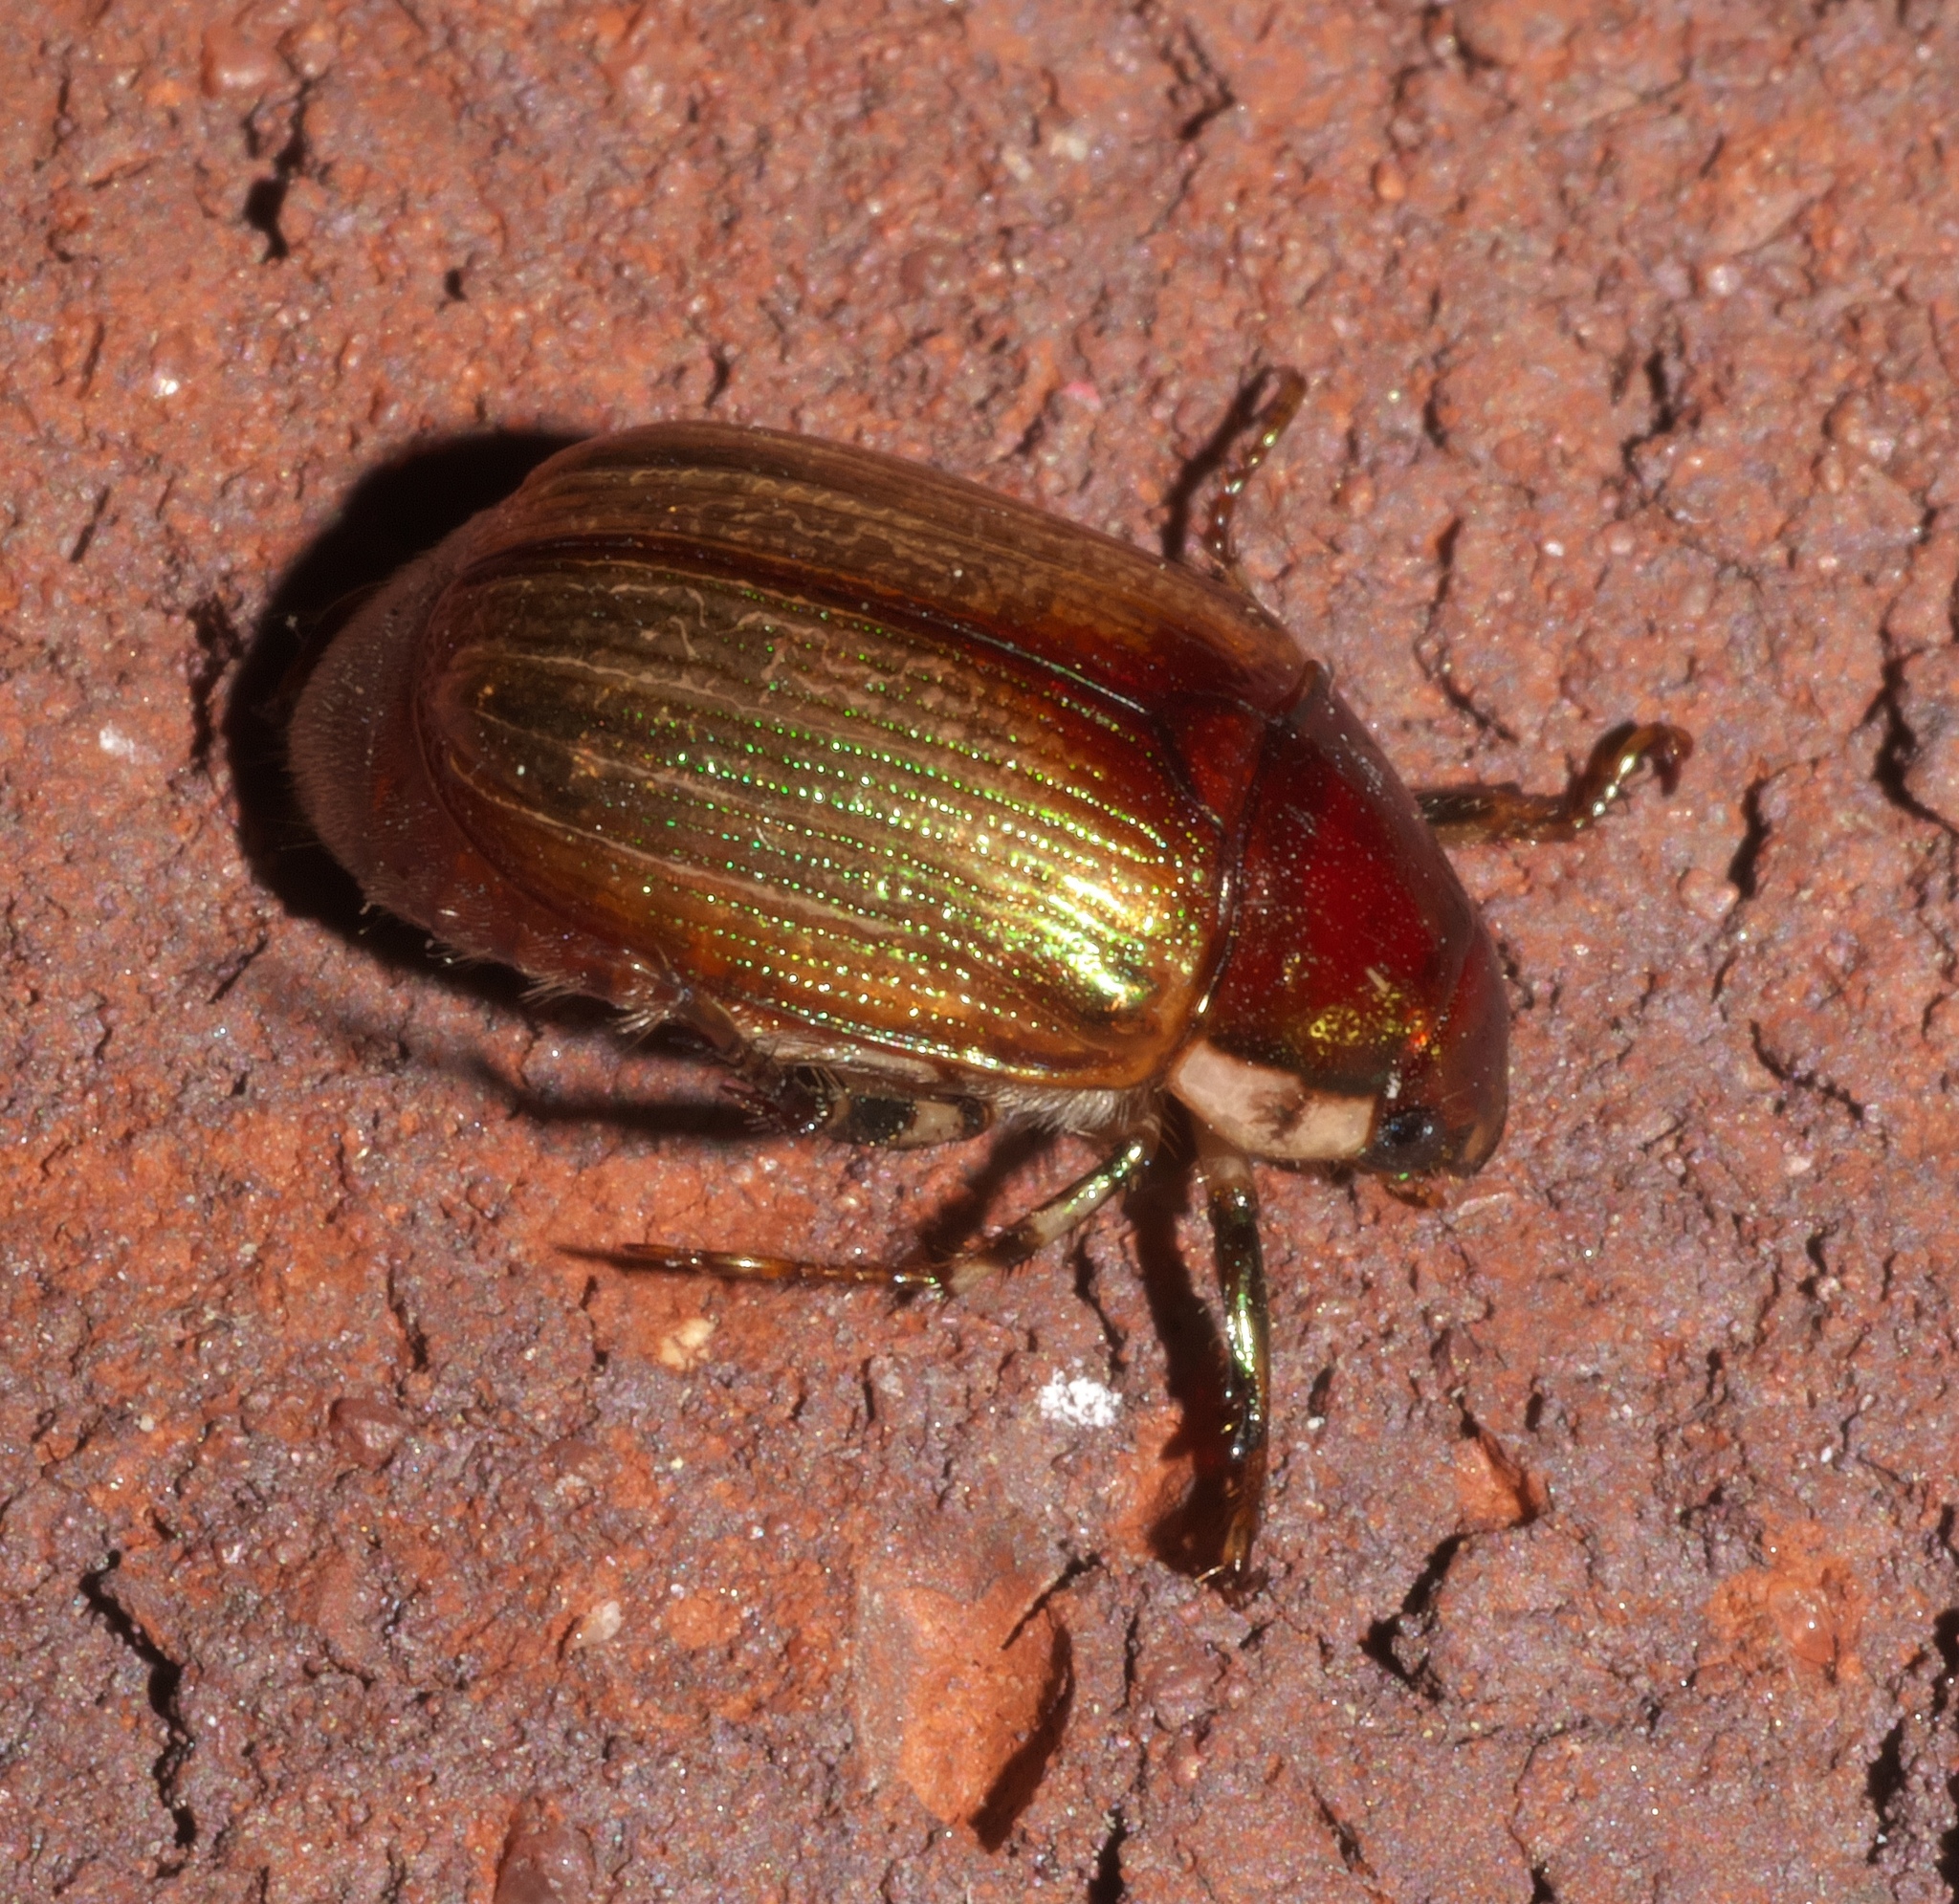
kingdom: Animalia
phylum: Arthropoda
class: Insecta
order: Coleoptera
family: Scarabaeidae
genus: Callistethus
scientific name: Callistethus marginatus
